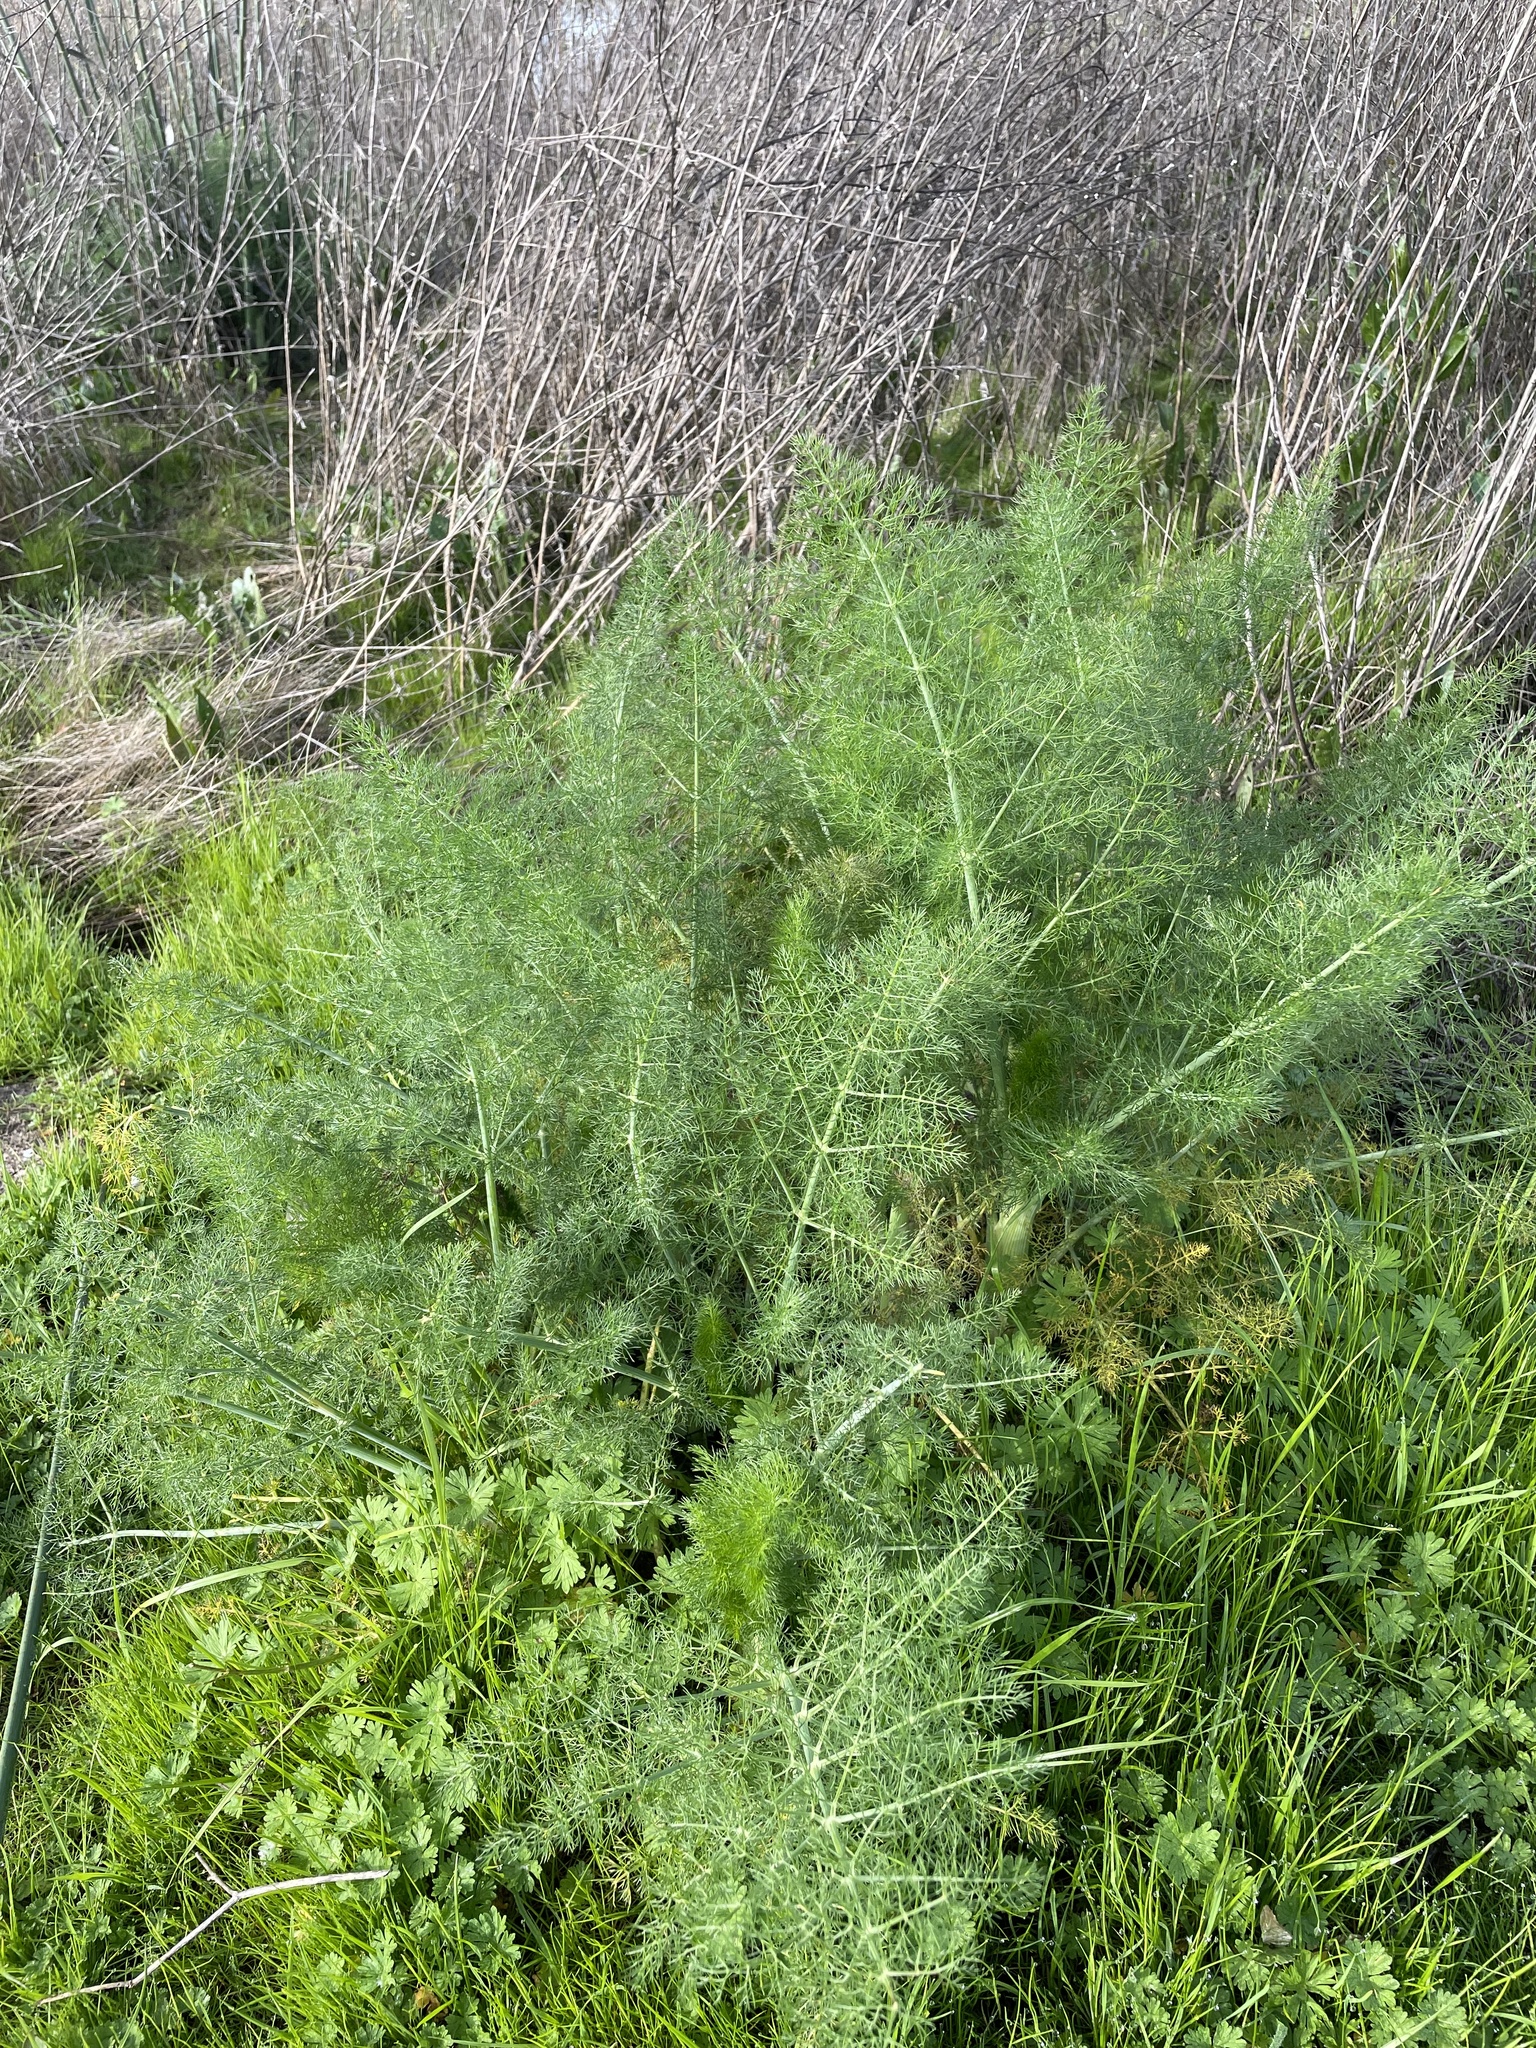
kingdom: Plantae
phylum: Tracheophyta
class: Magnoliopsida
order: Apiales
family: Apiaceae
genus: Foeniculum
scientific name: Foeniculum vulgare
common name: Fennel
